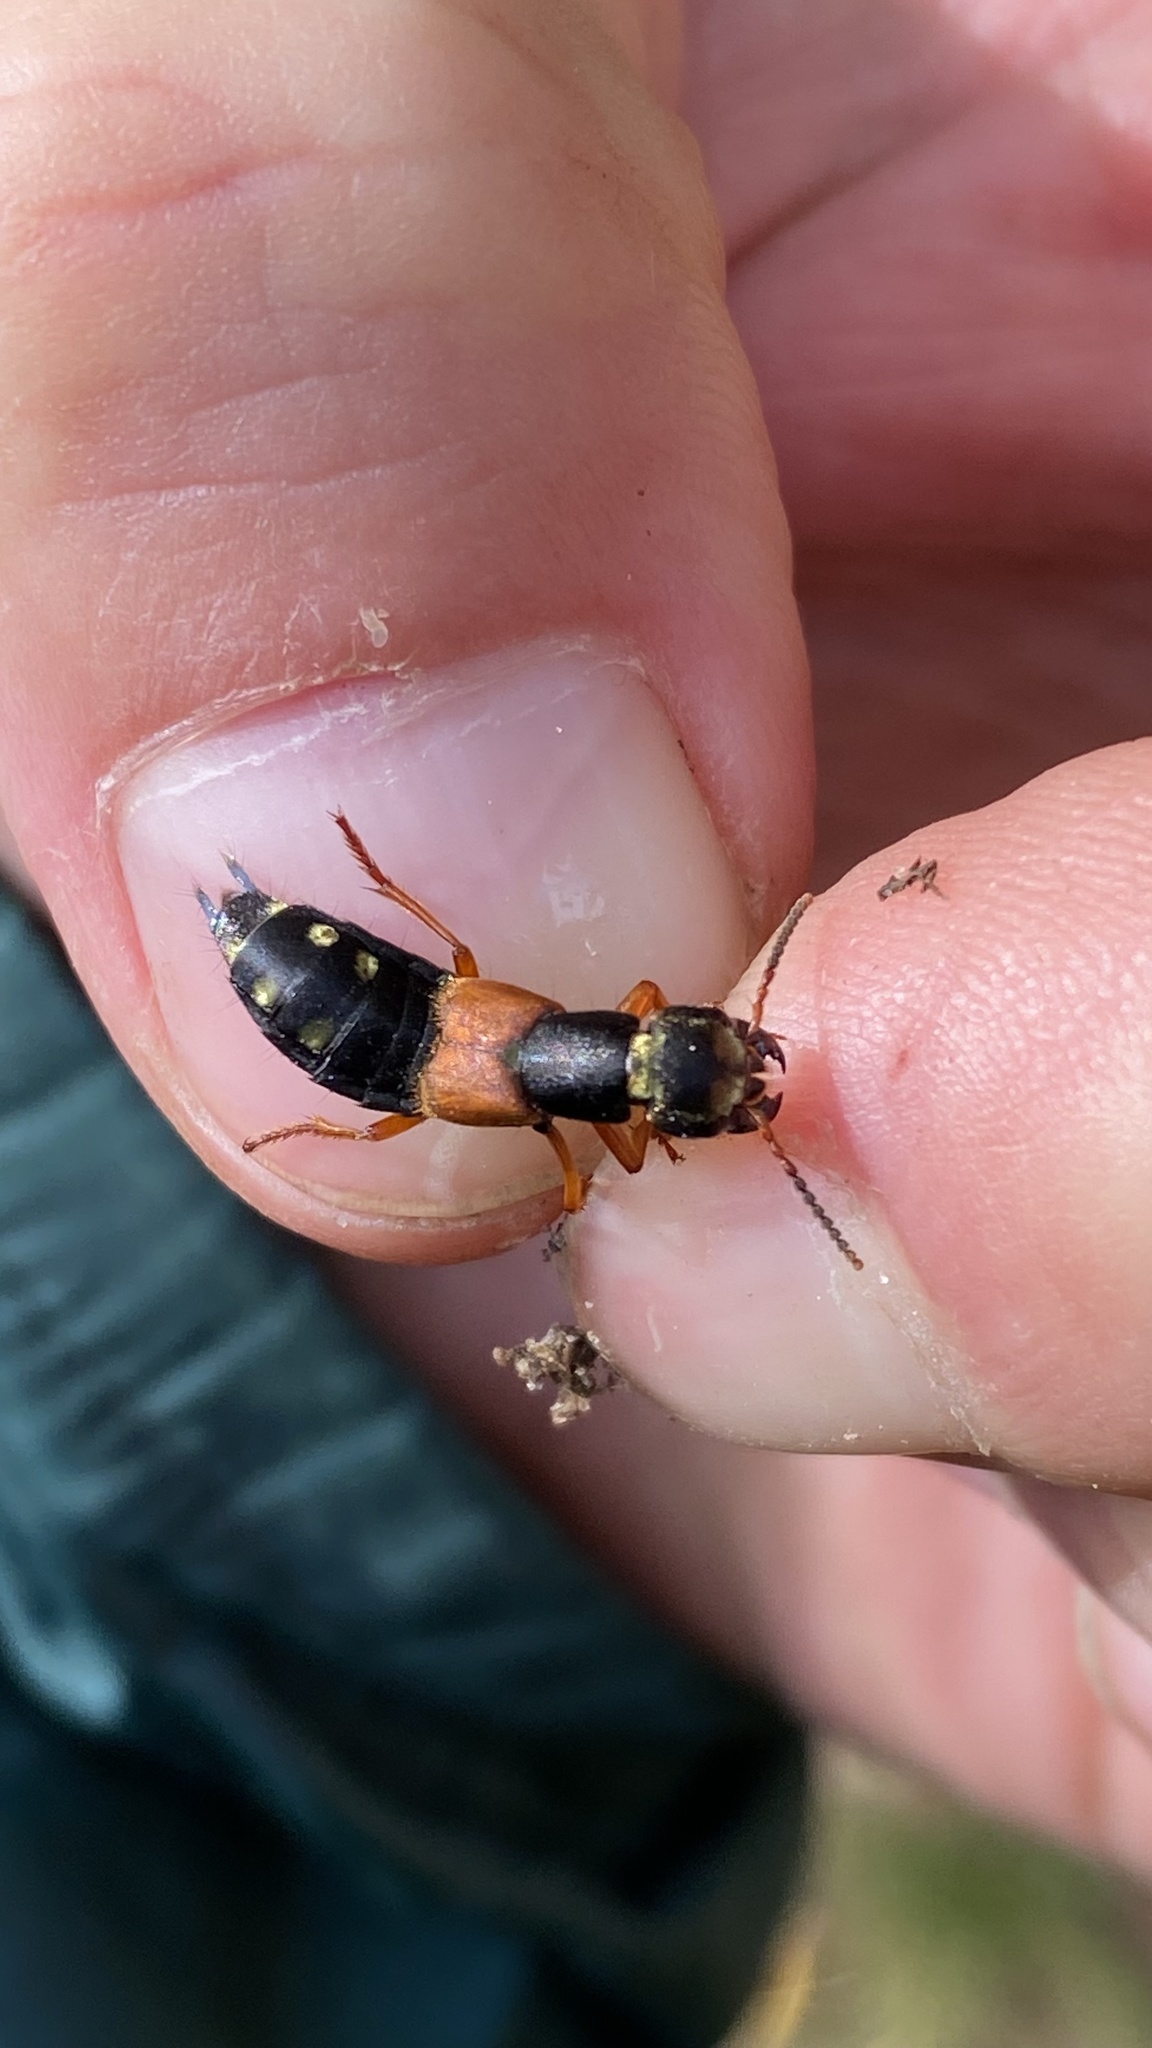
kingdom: Animalia
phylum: Arthropoda
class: Insecta
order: Coleoptera
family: Staphylinidae
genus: Staphylinus
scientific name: Staphylinus erythropterus
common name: Staph beetle
